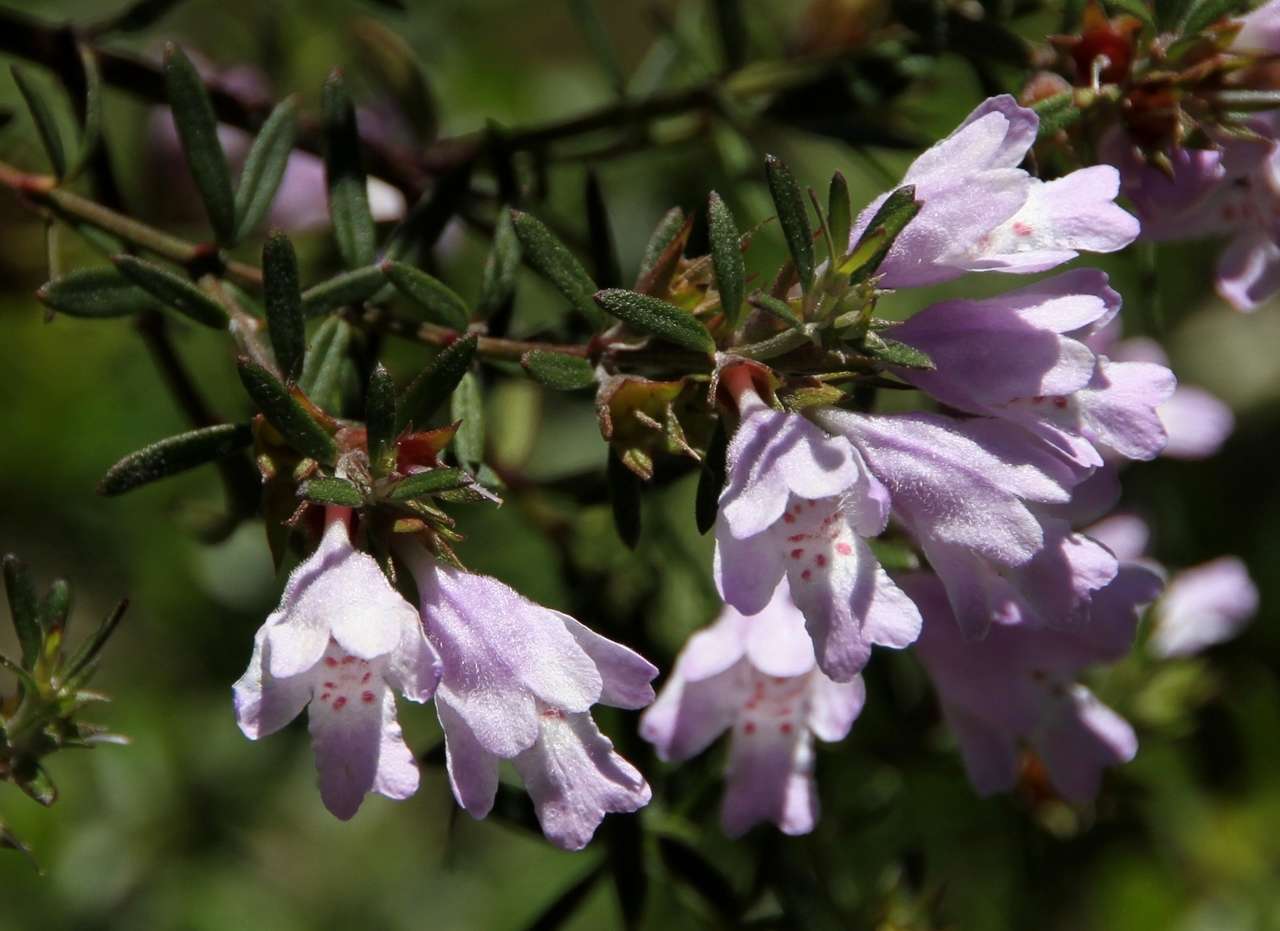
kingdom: Plantae
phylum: Tracheophyta
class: Magnoliopsida
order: Lamiales
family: Lamiaceae
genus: Westringia
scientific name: Westringia glabra
